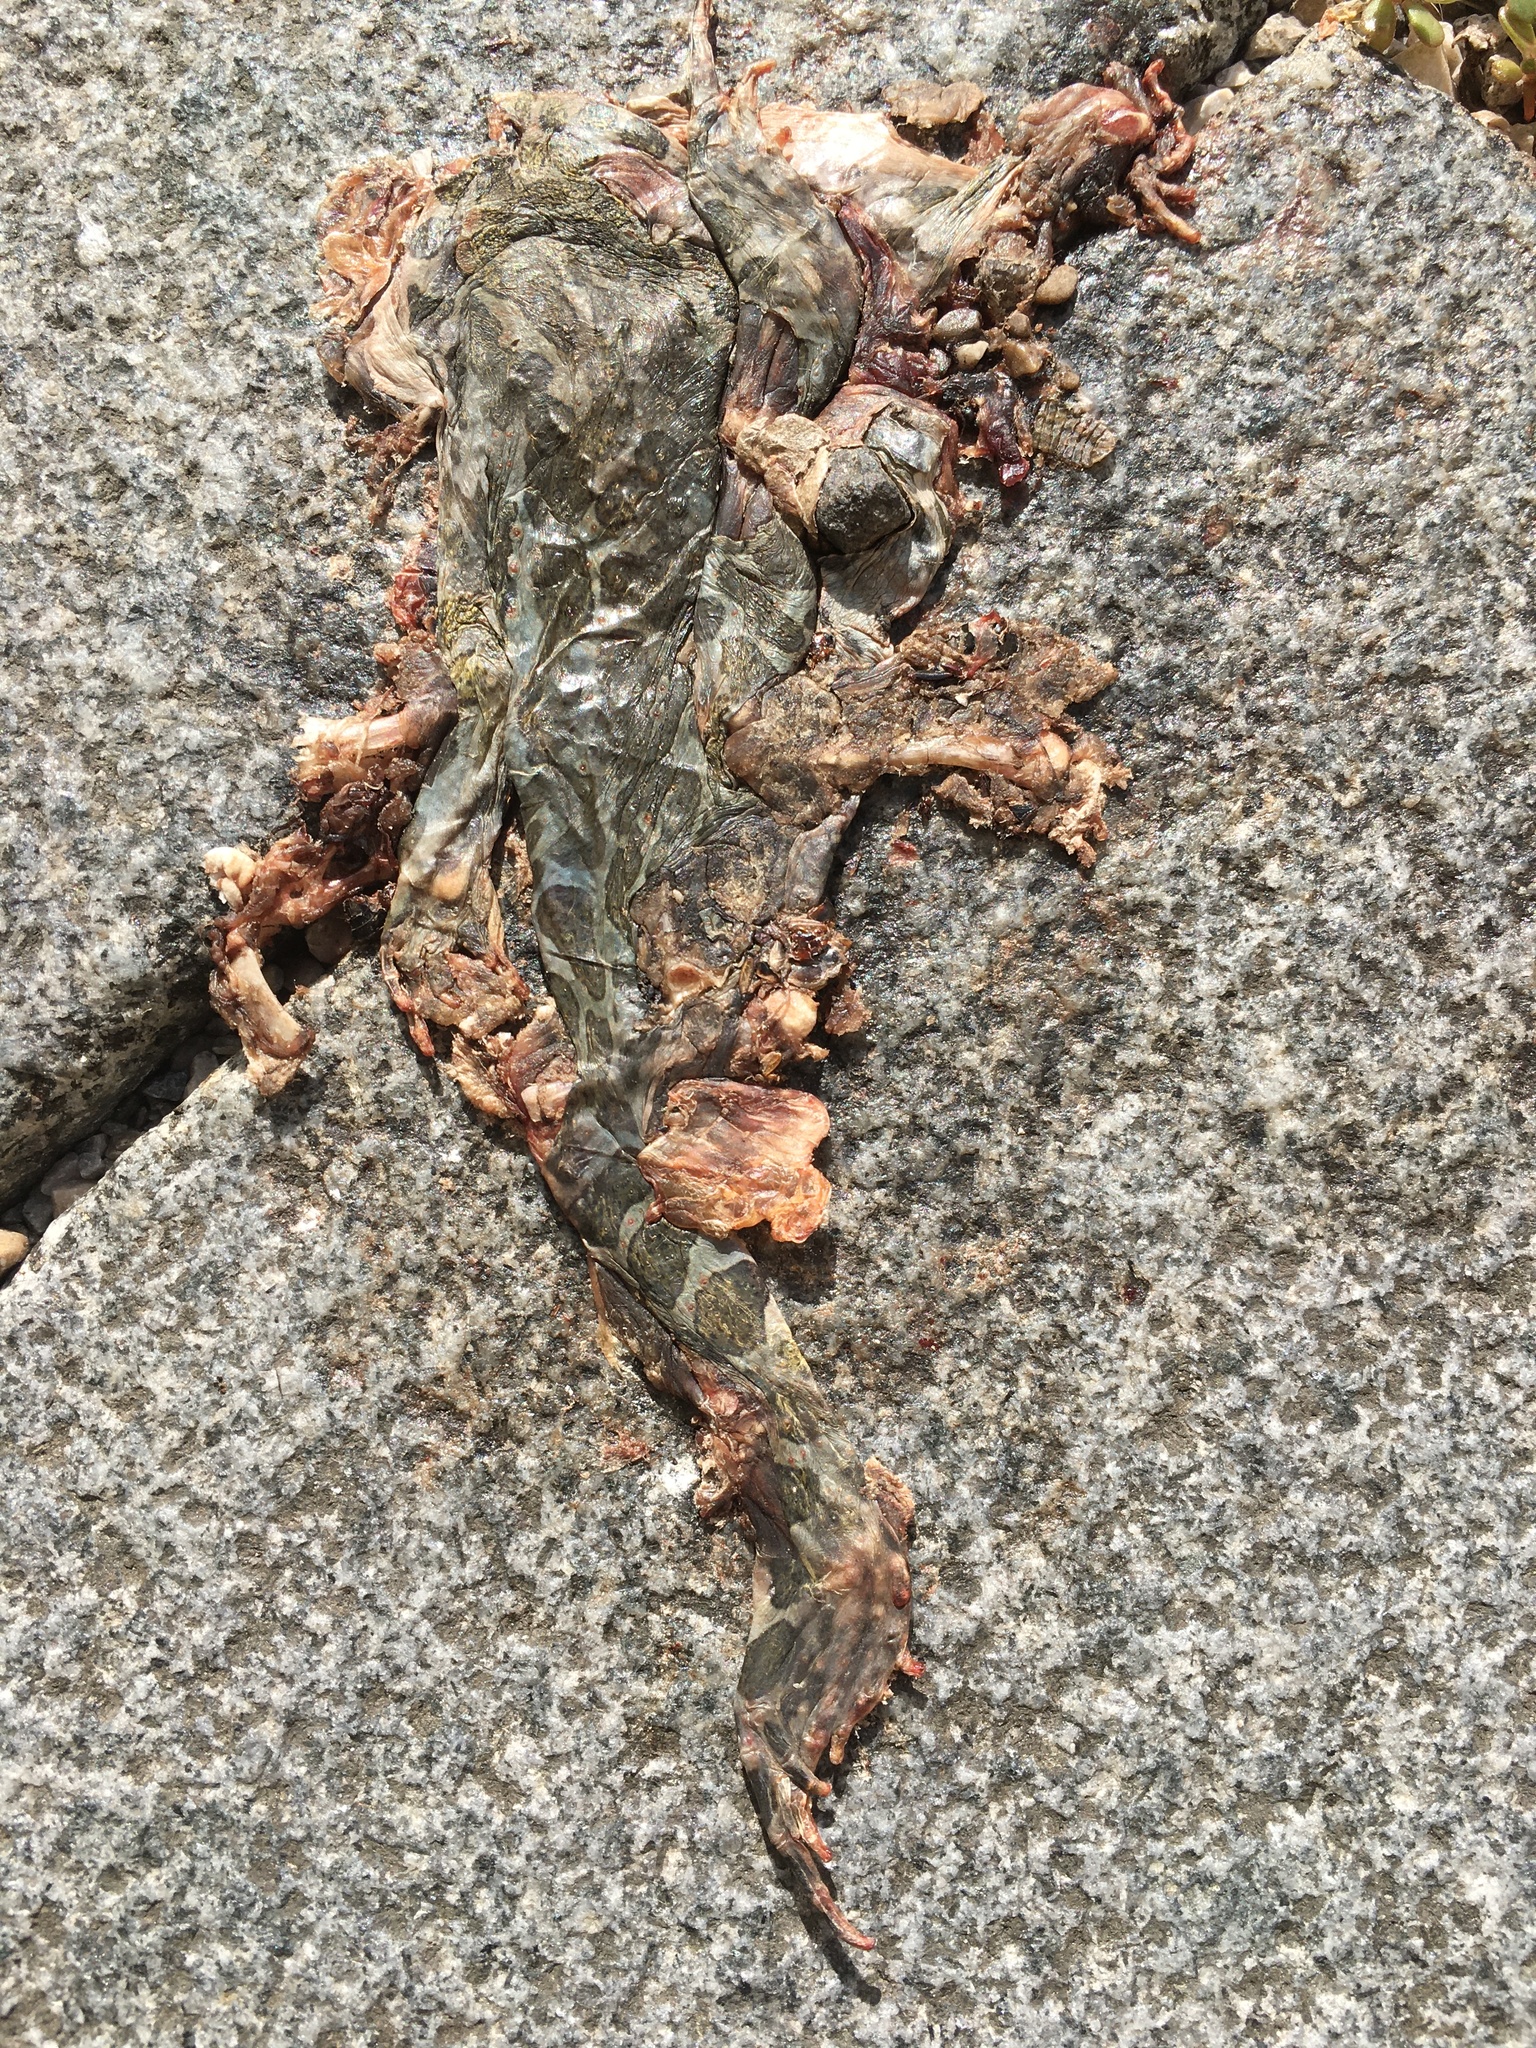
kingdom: Animalia
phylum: Chordata
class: Amphibia
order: Anura
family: Bufonidae
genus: Bufotes
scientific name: Bufotes viridis
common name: European green toad
